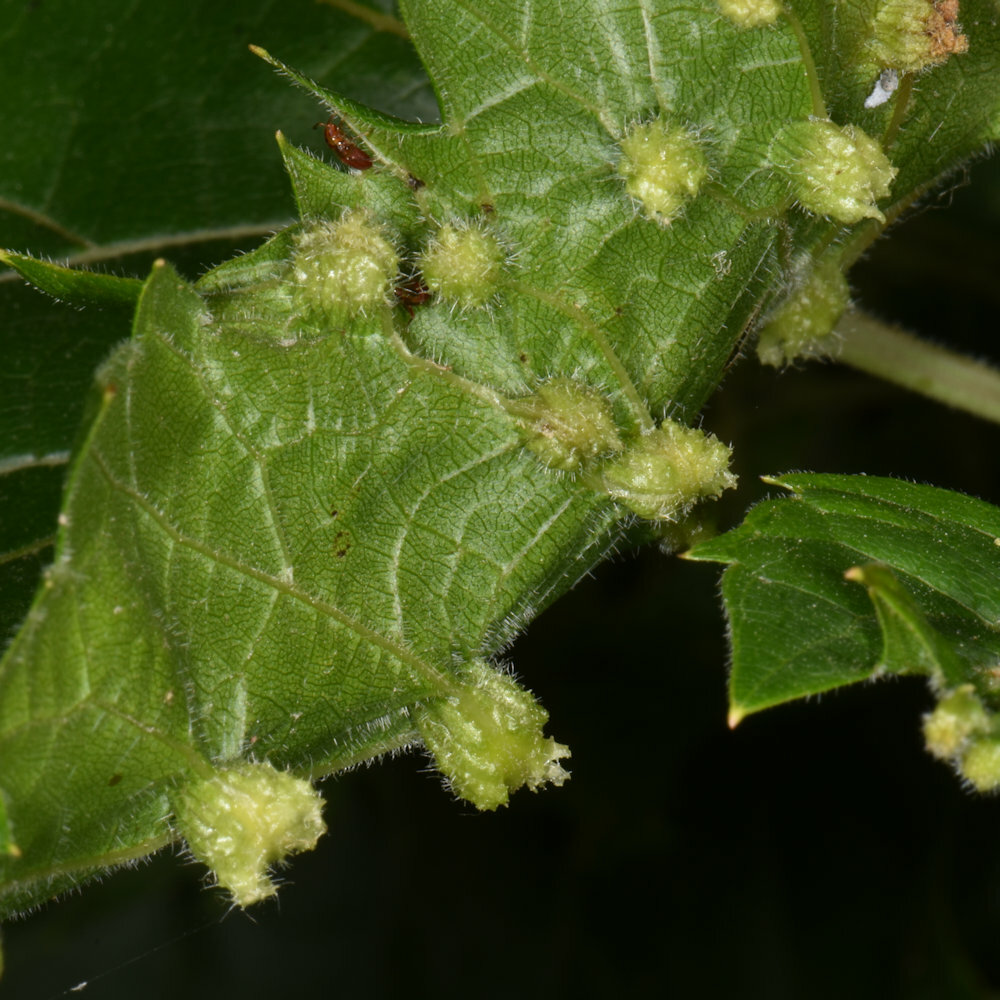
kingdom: Animalia
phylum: Arthropoda
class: Insecta
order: Hemiptera
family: Phylloxeridae
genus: Daktulosphaira
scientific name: Daktulosphaira vitifoliae
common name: Grape phylloxera
